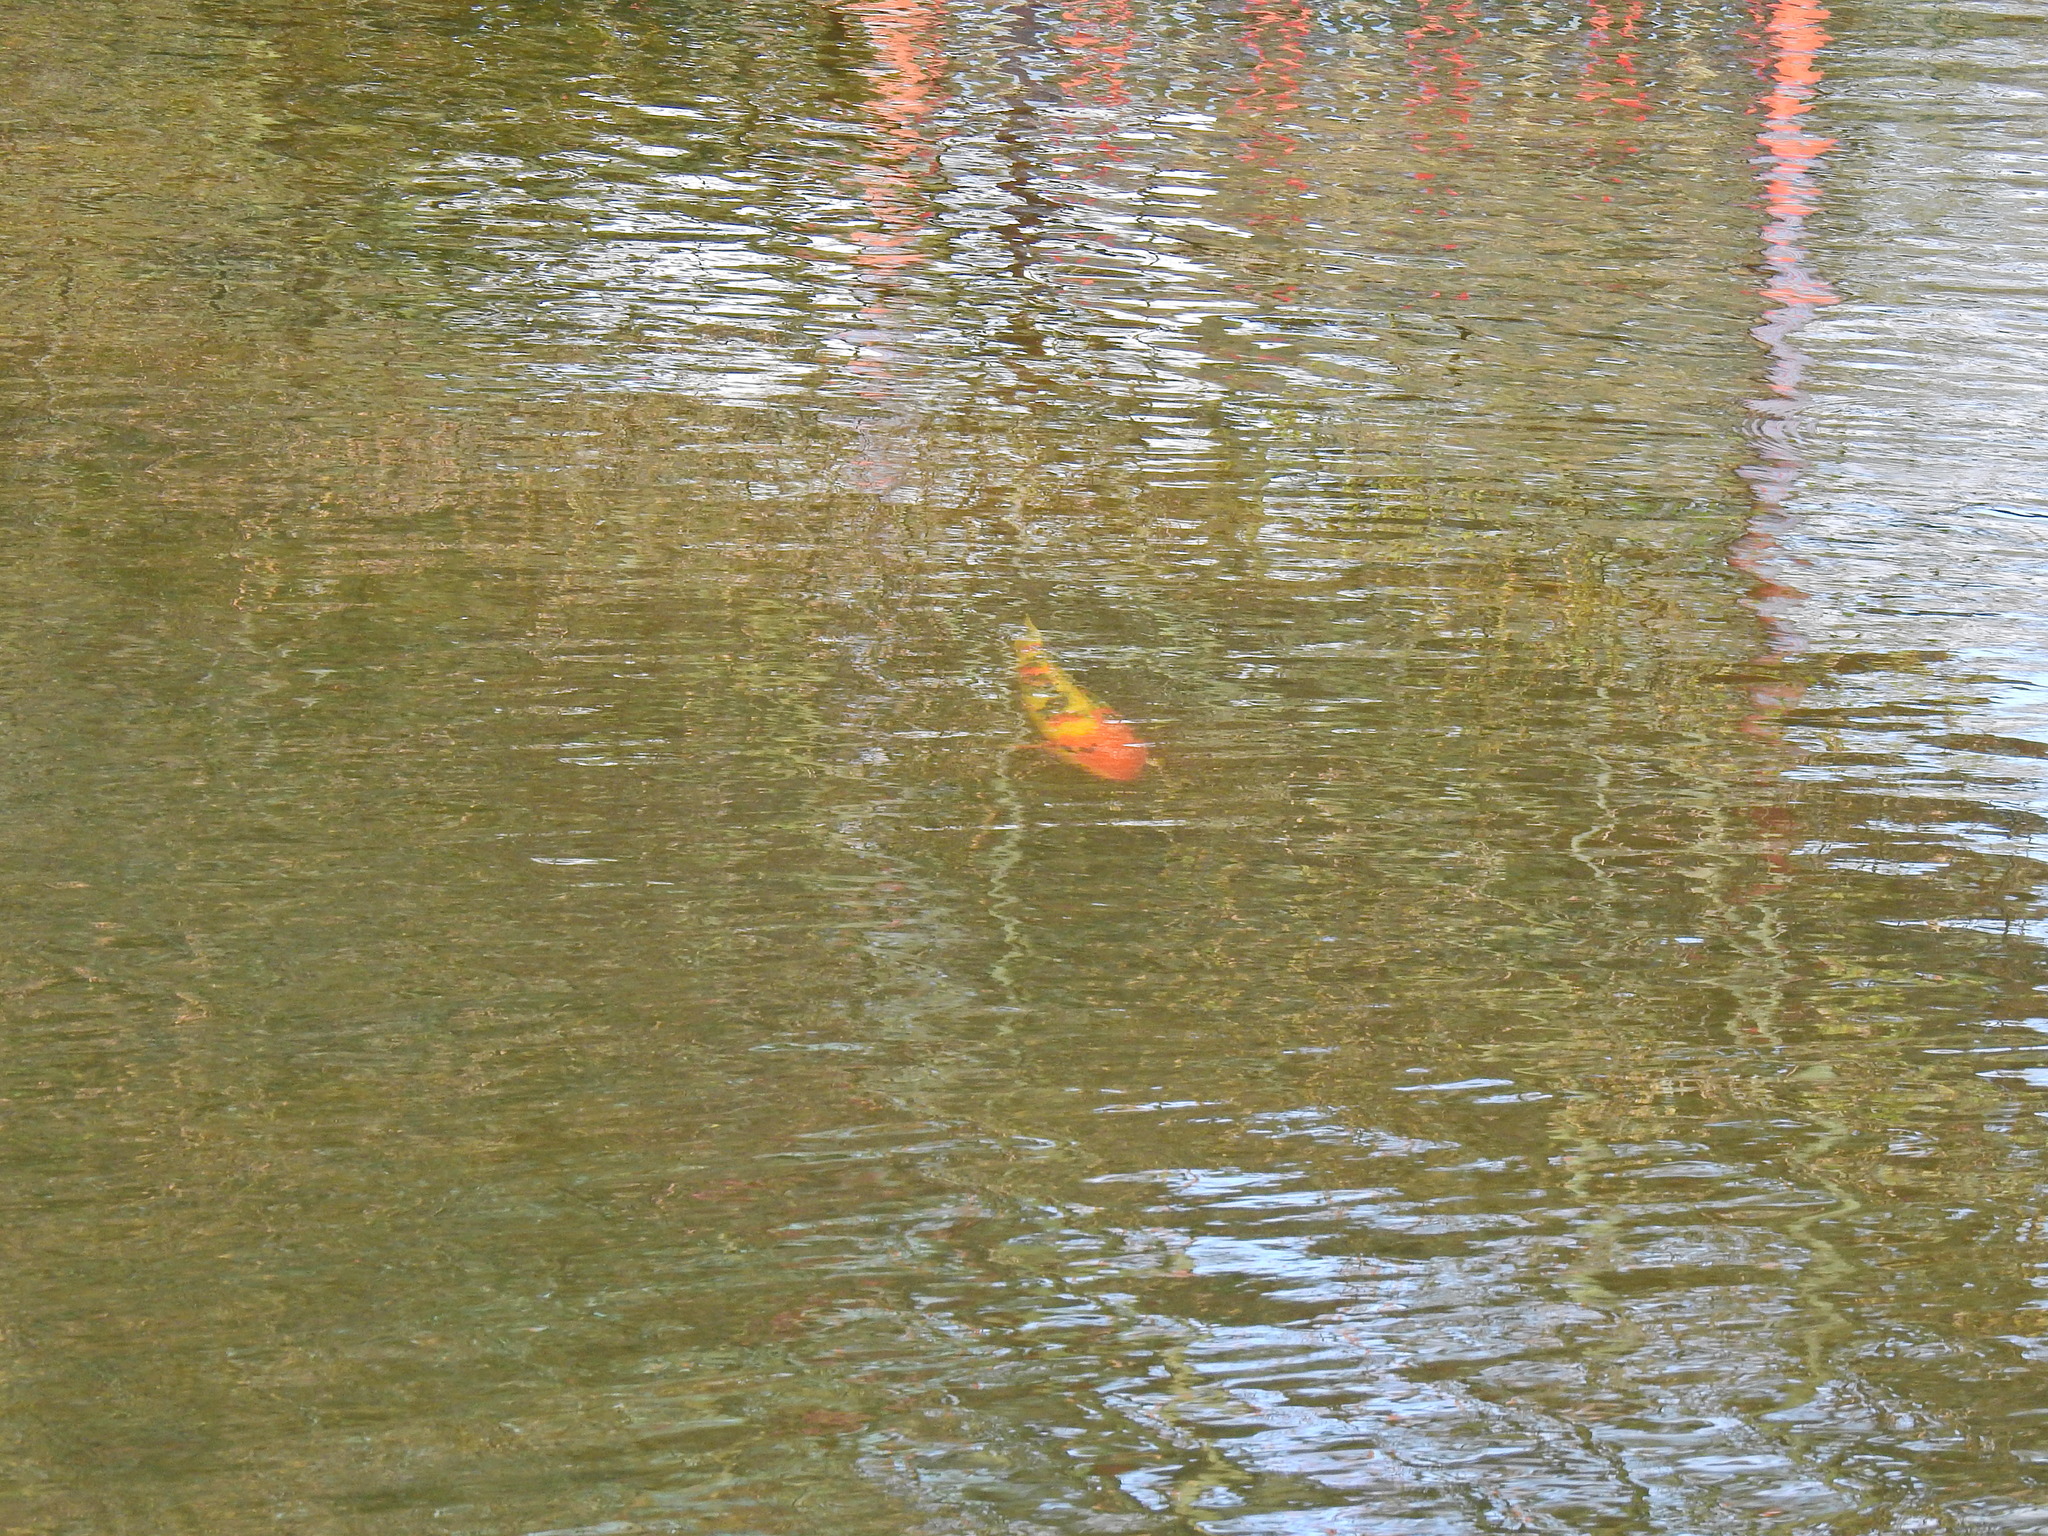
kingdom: Animalia
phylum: Chordata
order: Cypriniformes
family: Cyprinidae
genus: Cyprinus
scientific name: Cyprinus rubrofuscus
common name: Koi
